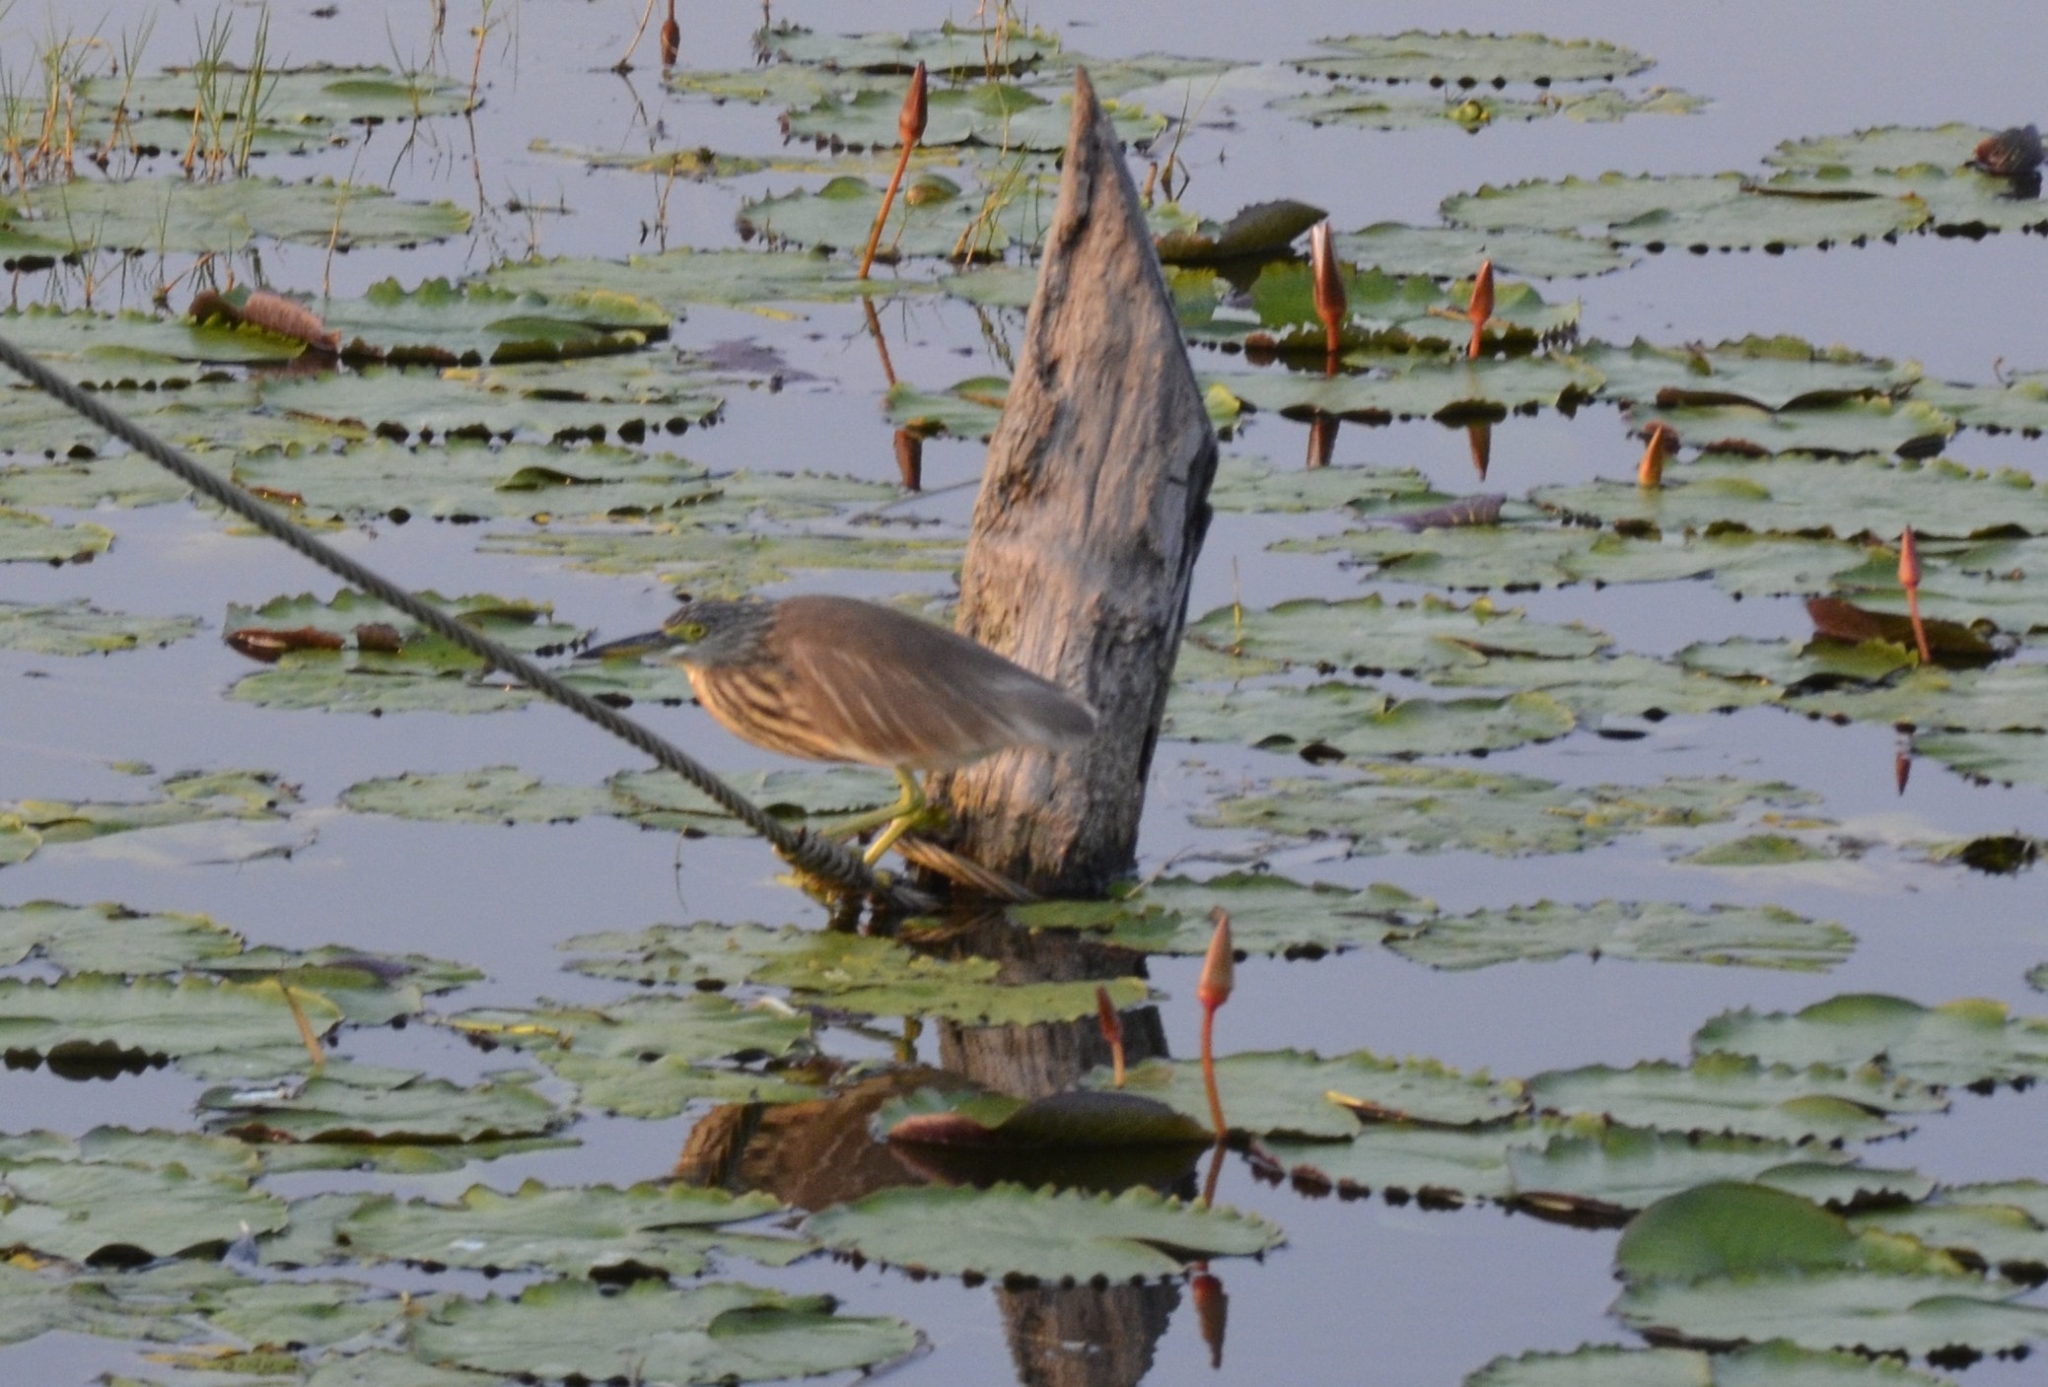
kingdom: Animalia
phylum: Chordata
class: Aves
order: Pelecaniformes
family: Ardeidae
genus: Ardeola
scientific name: Ardeola grayii
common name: Indian pond heron
